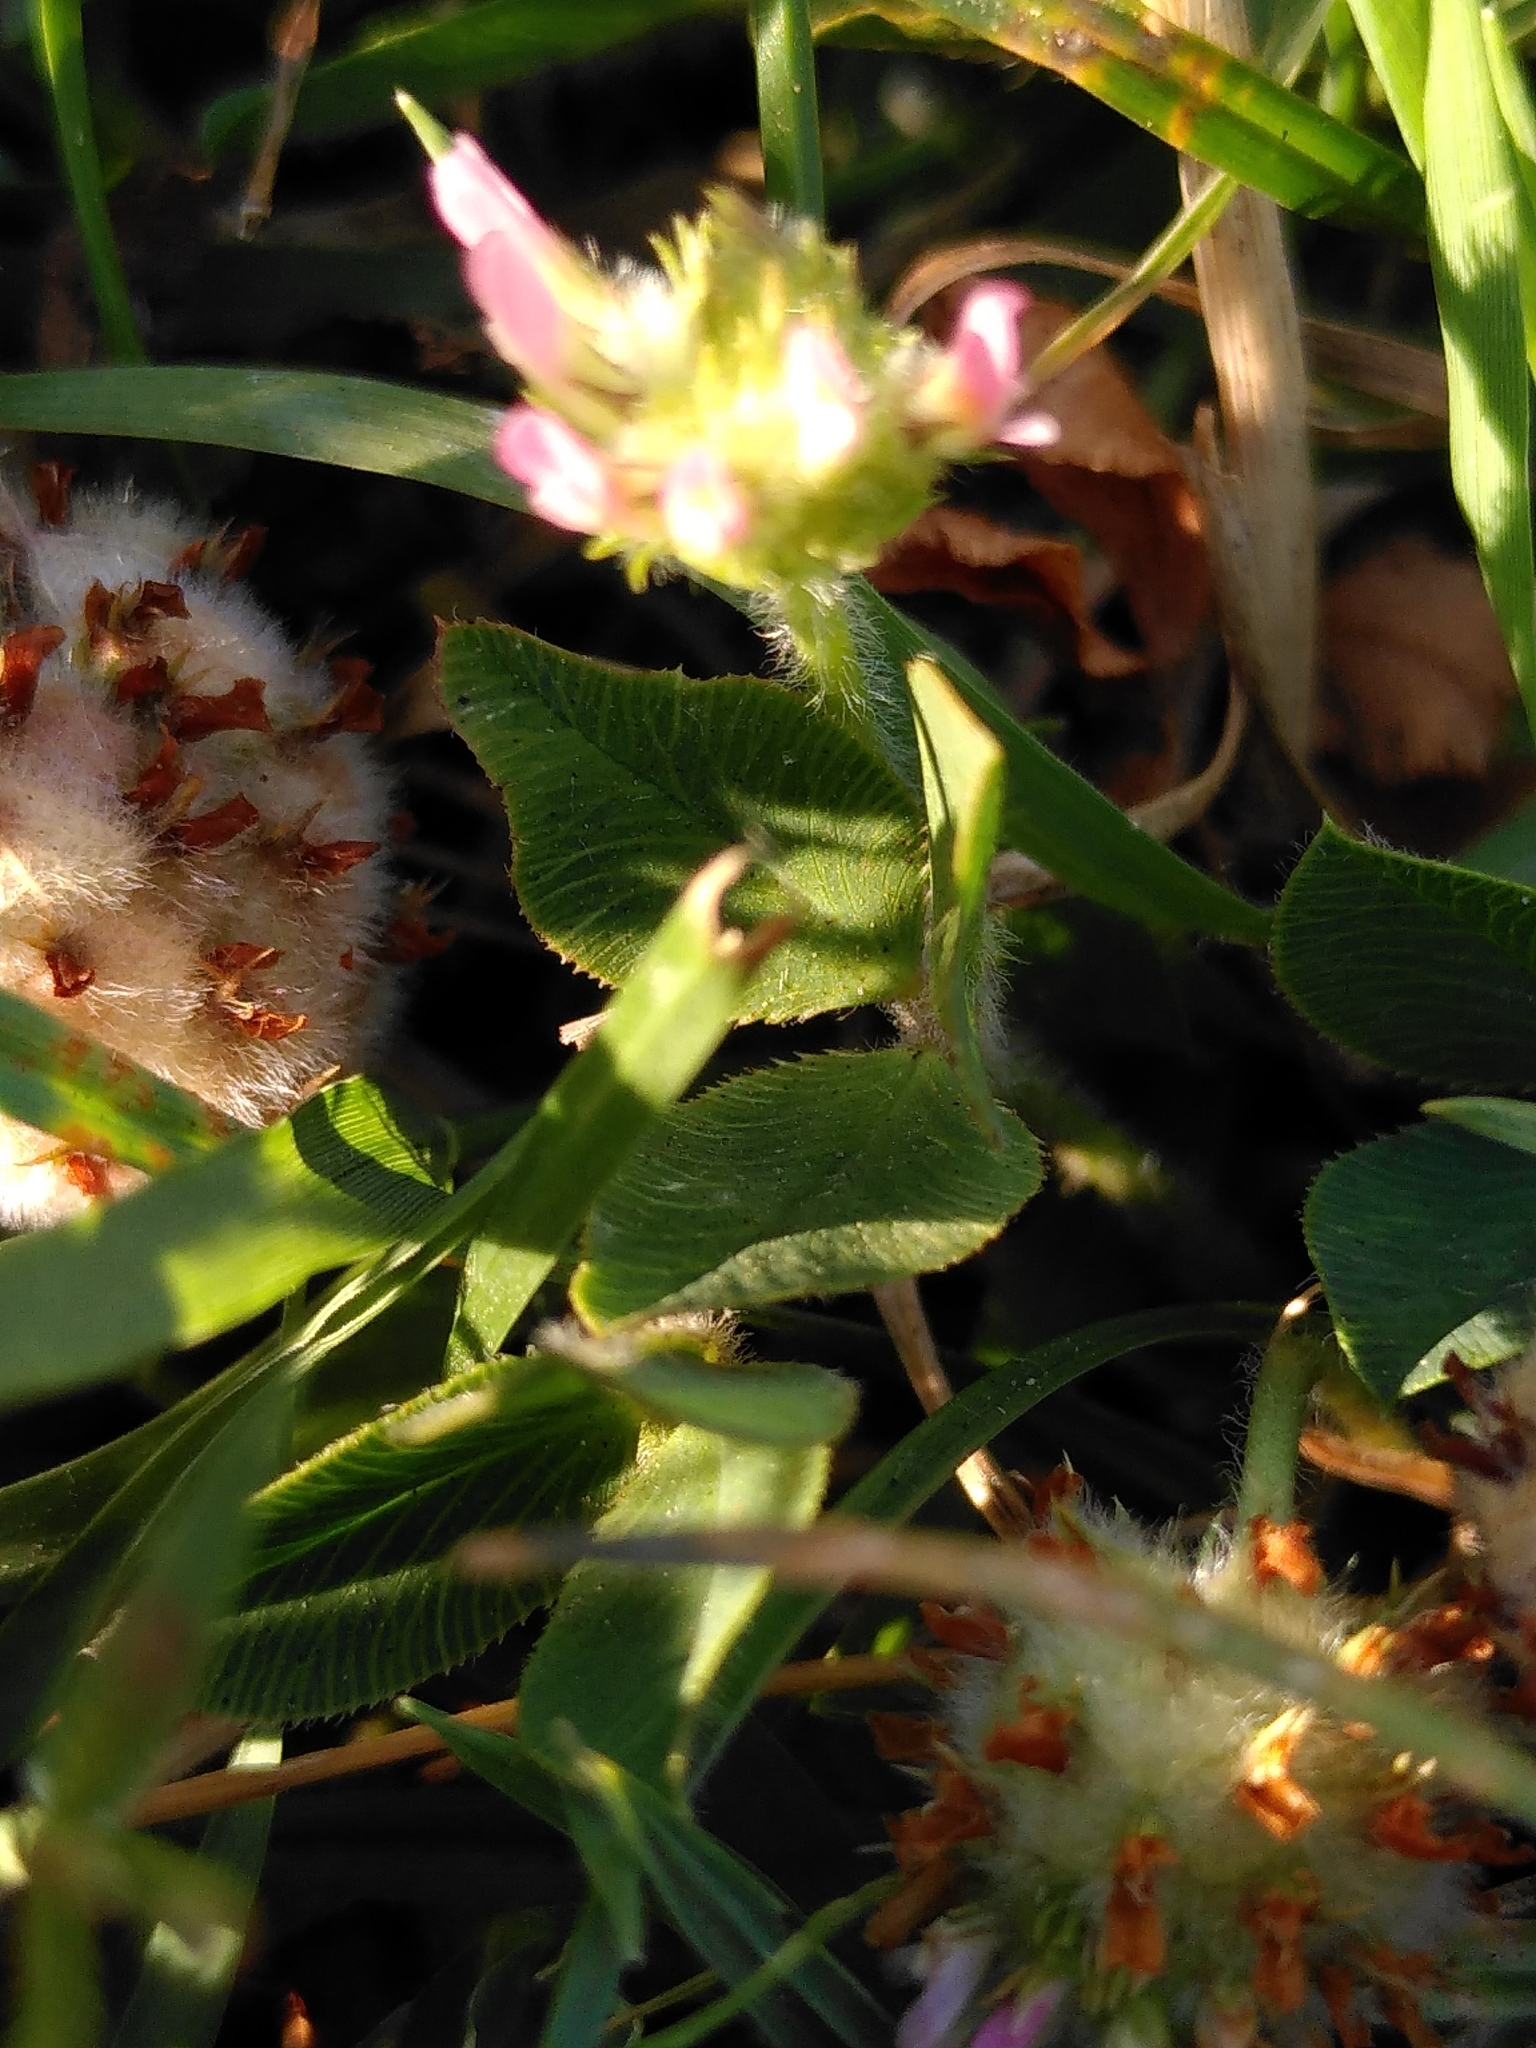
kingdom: Plantae
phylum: Tracheophyta
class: Magnoliopsida
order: Fabales
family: Fabaceae
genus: Trifolium
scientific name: Trifolium fragiferum
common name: Strawberry clover
